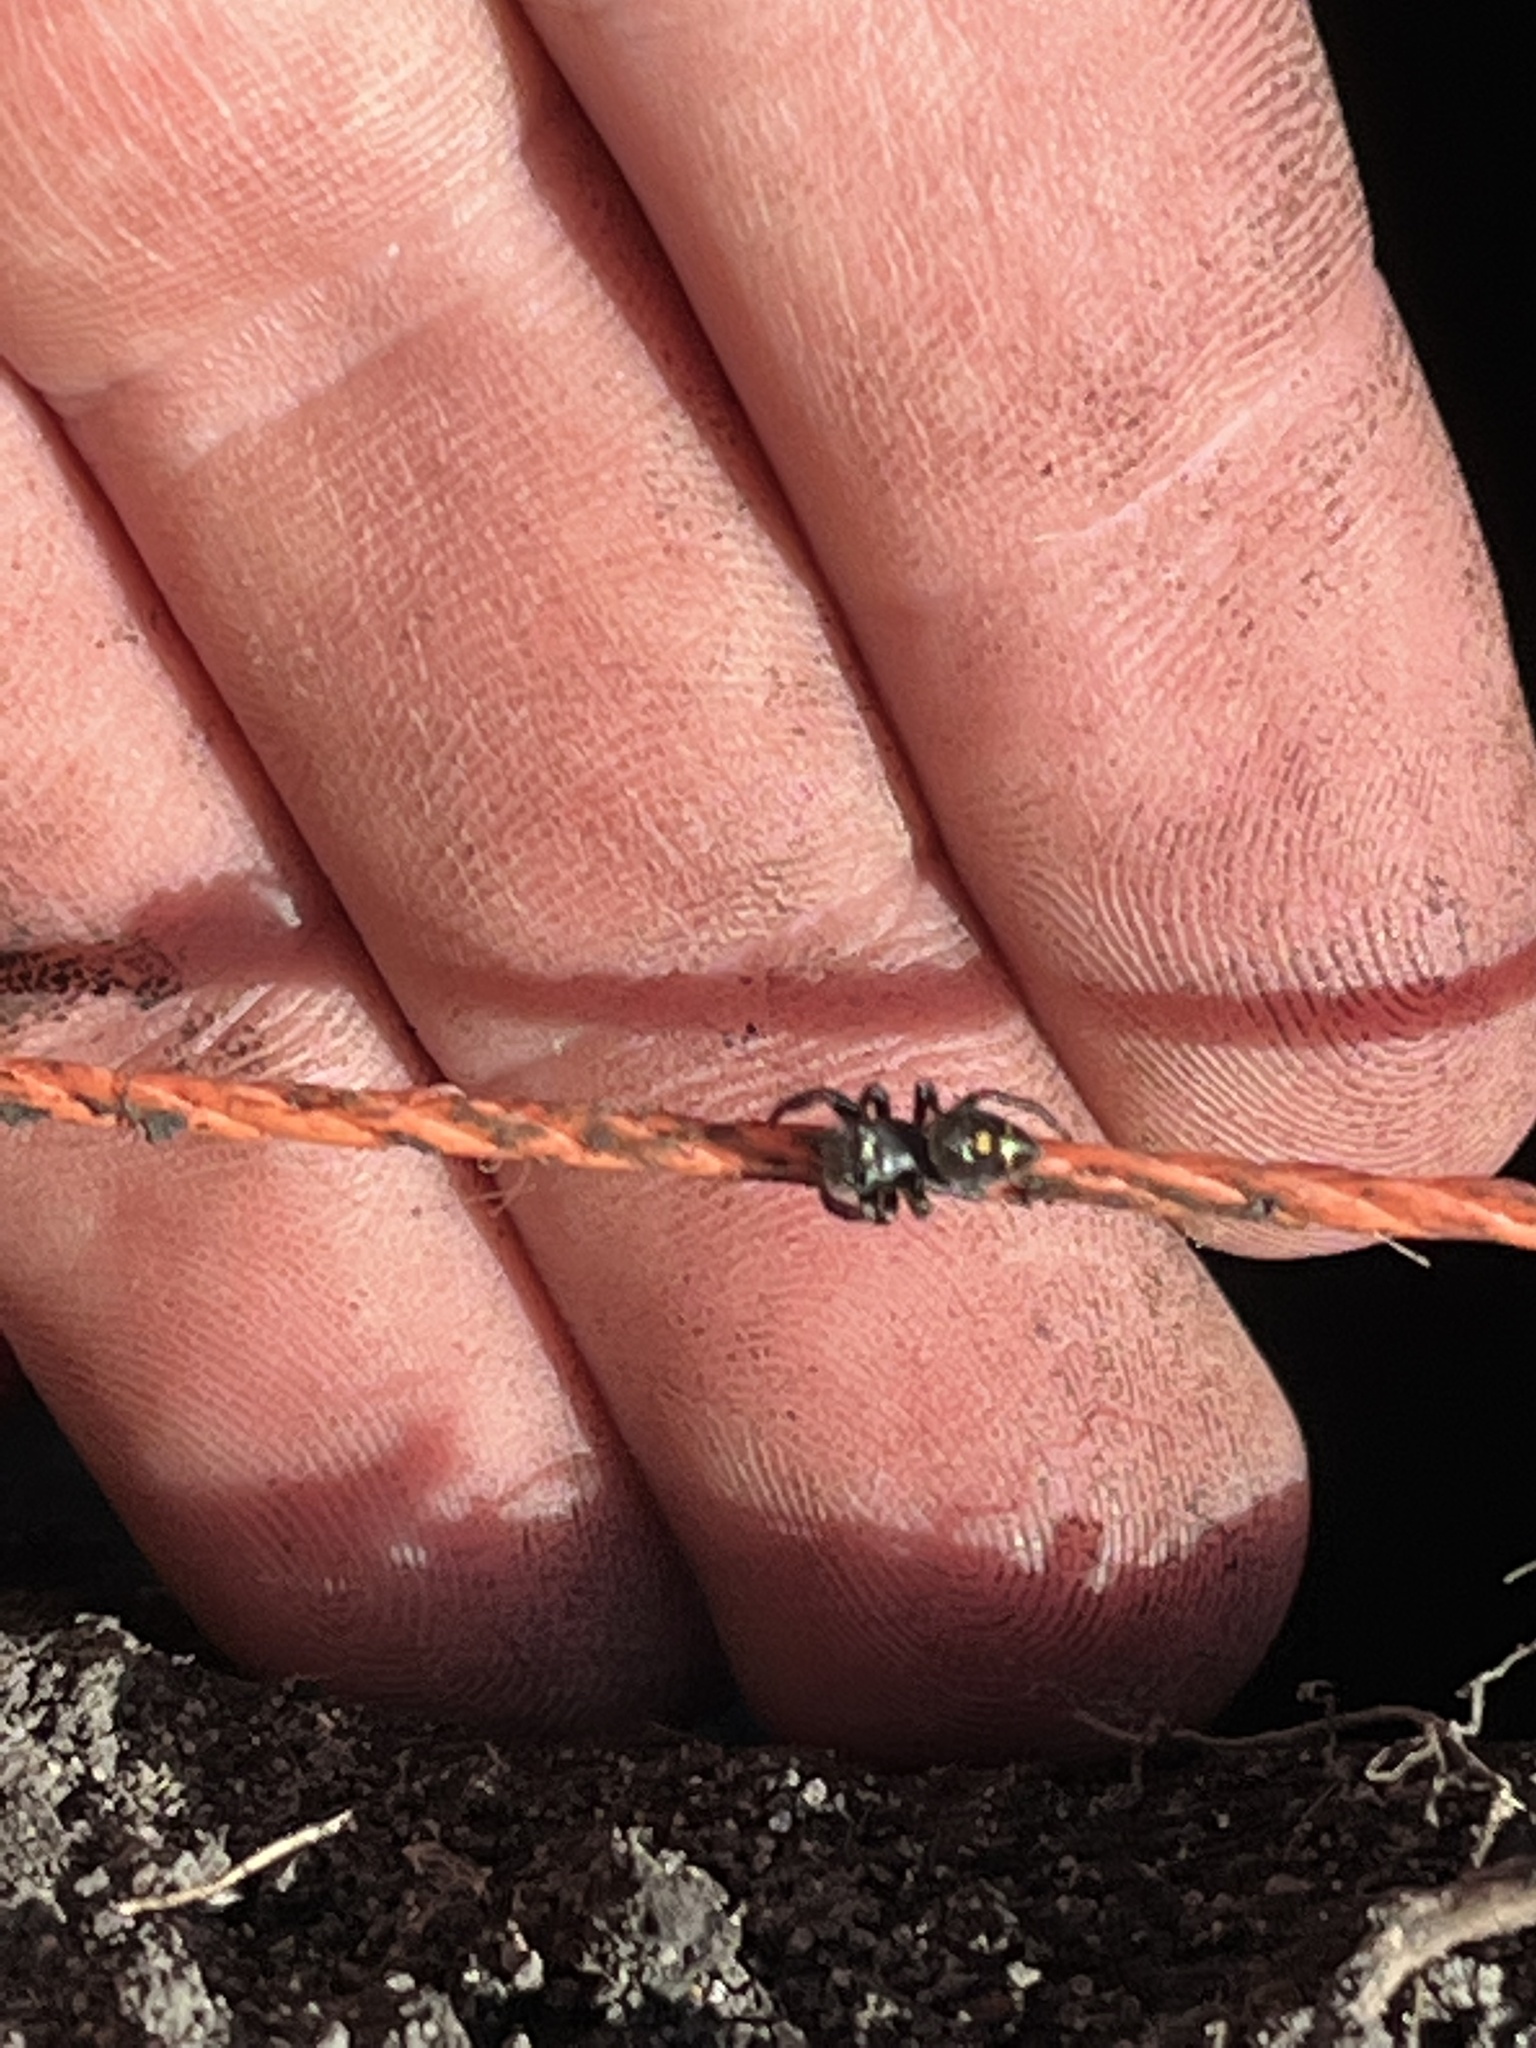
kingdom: Animalia
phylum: Arthropoda
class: Arachnida
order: Araneae
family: Salticidae
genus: Phidippus
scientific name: Phidippus audax
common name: Bold jumper
